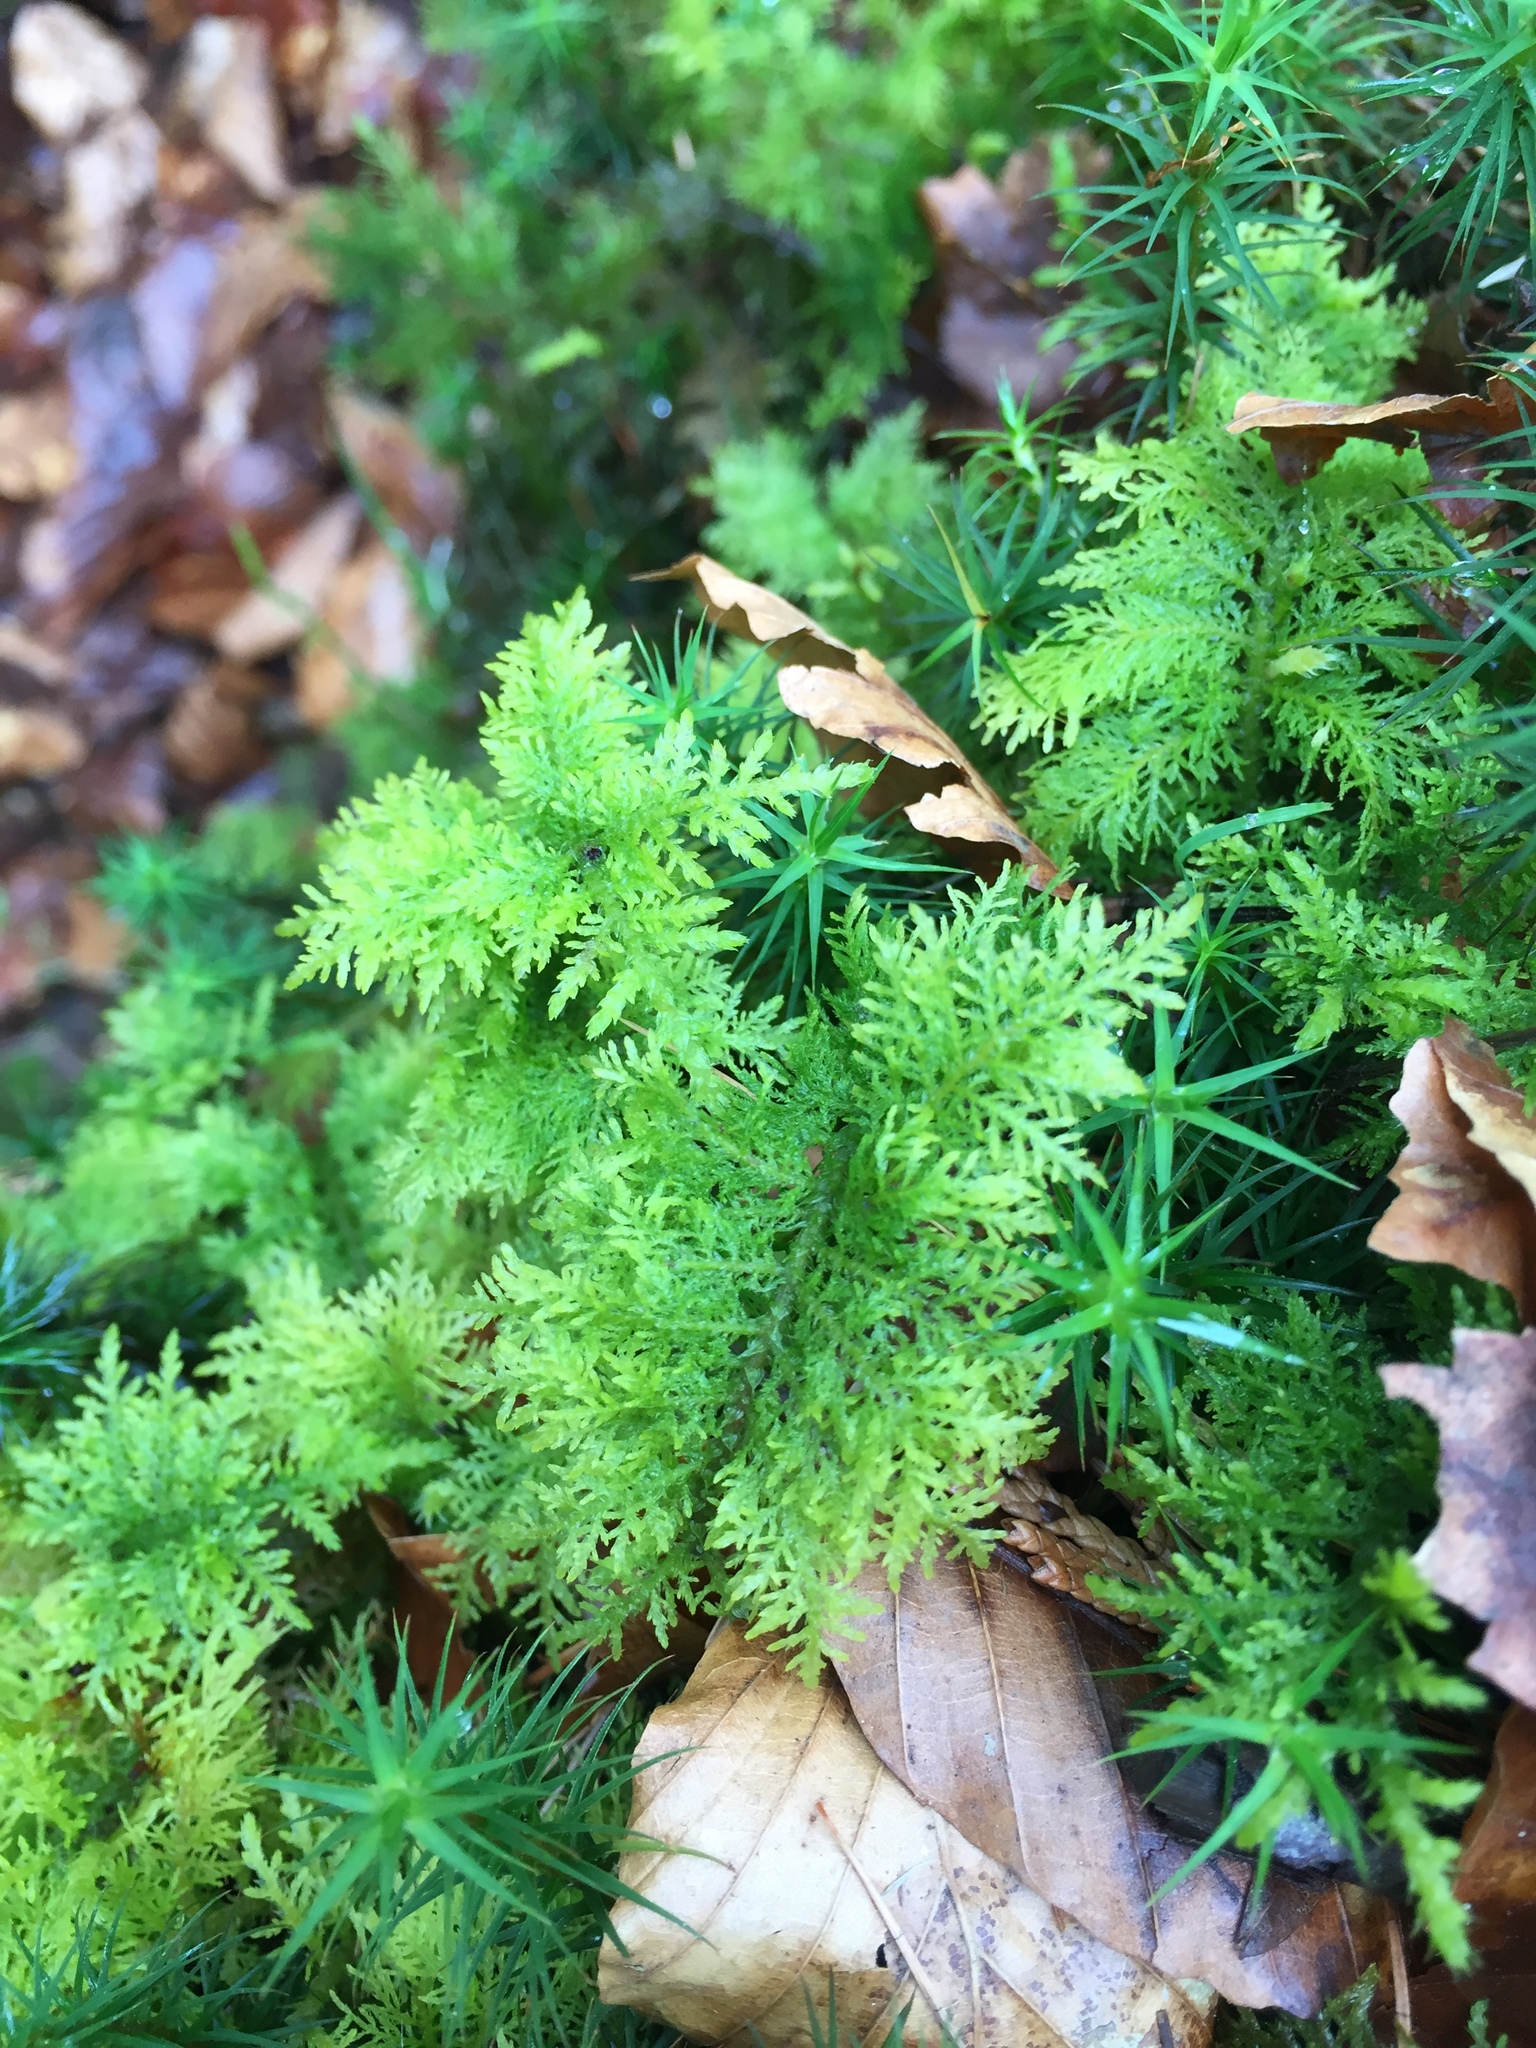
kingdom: Plantae
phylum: Bryophyta
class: Bryopsida
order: Hypnales
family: Thuidiaceae
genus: Thuidium
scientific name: Thuidium tamariscinum
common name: Common tamarisk-moss
